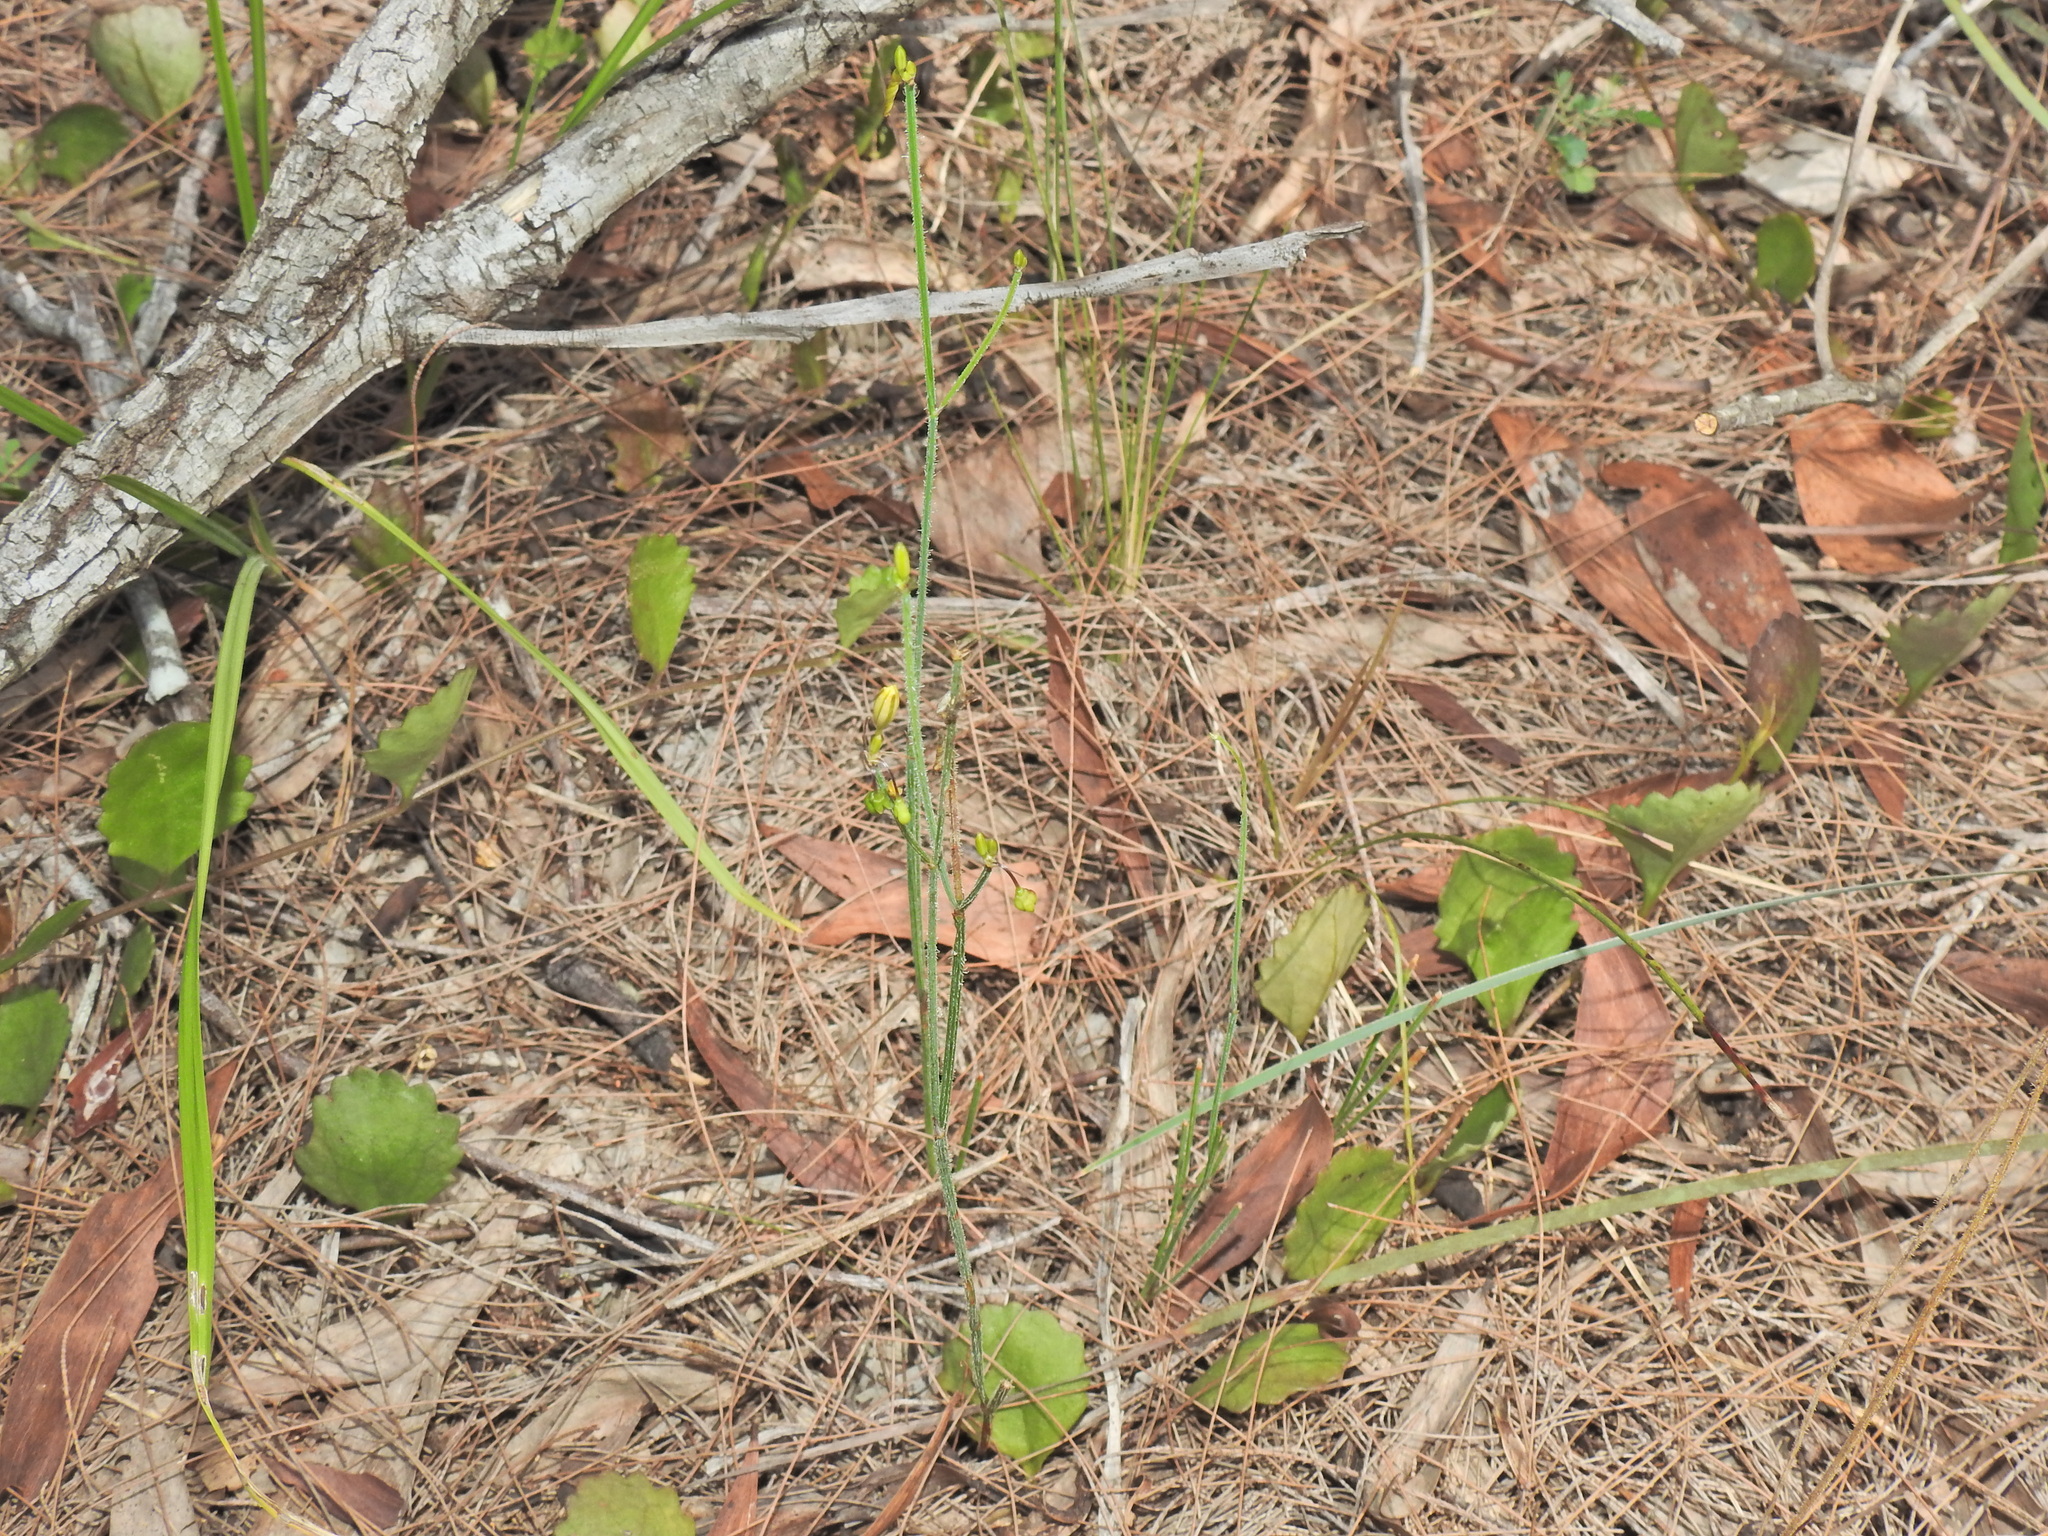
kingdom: Plantae
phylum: Tracheophyta
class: Liliopsida
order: Asparagales
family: Asphodelaceae
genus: Tricoryne
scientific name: Tricoryne muricata
